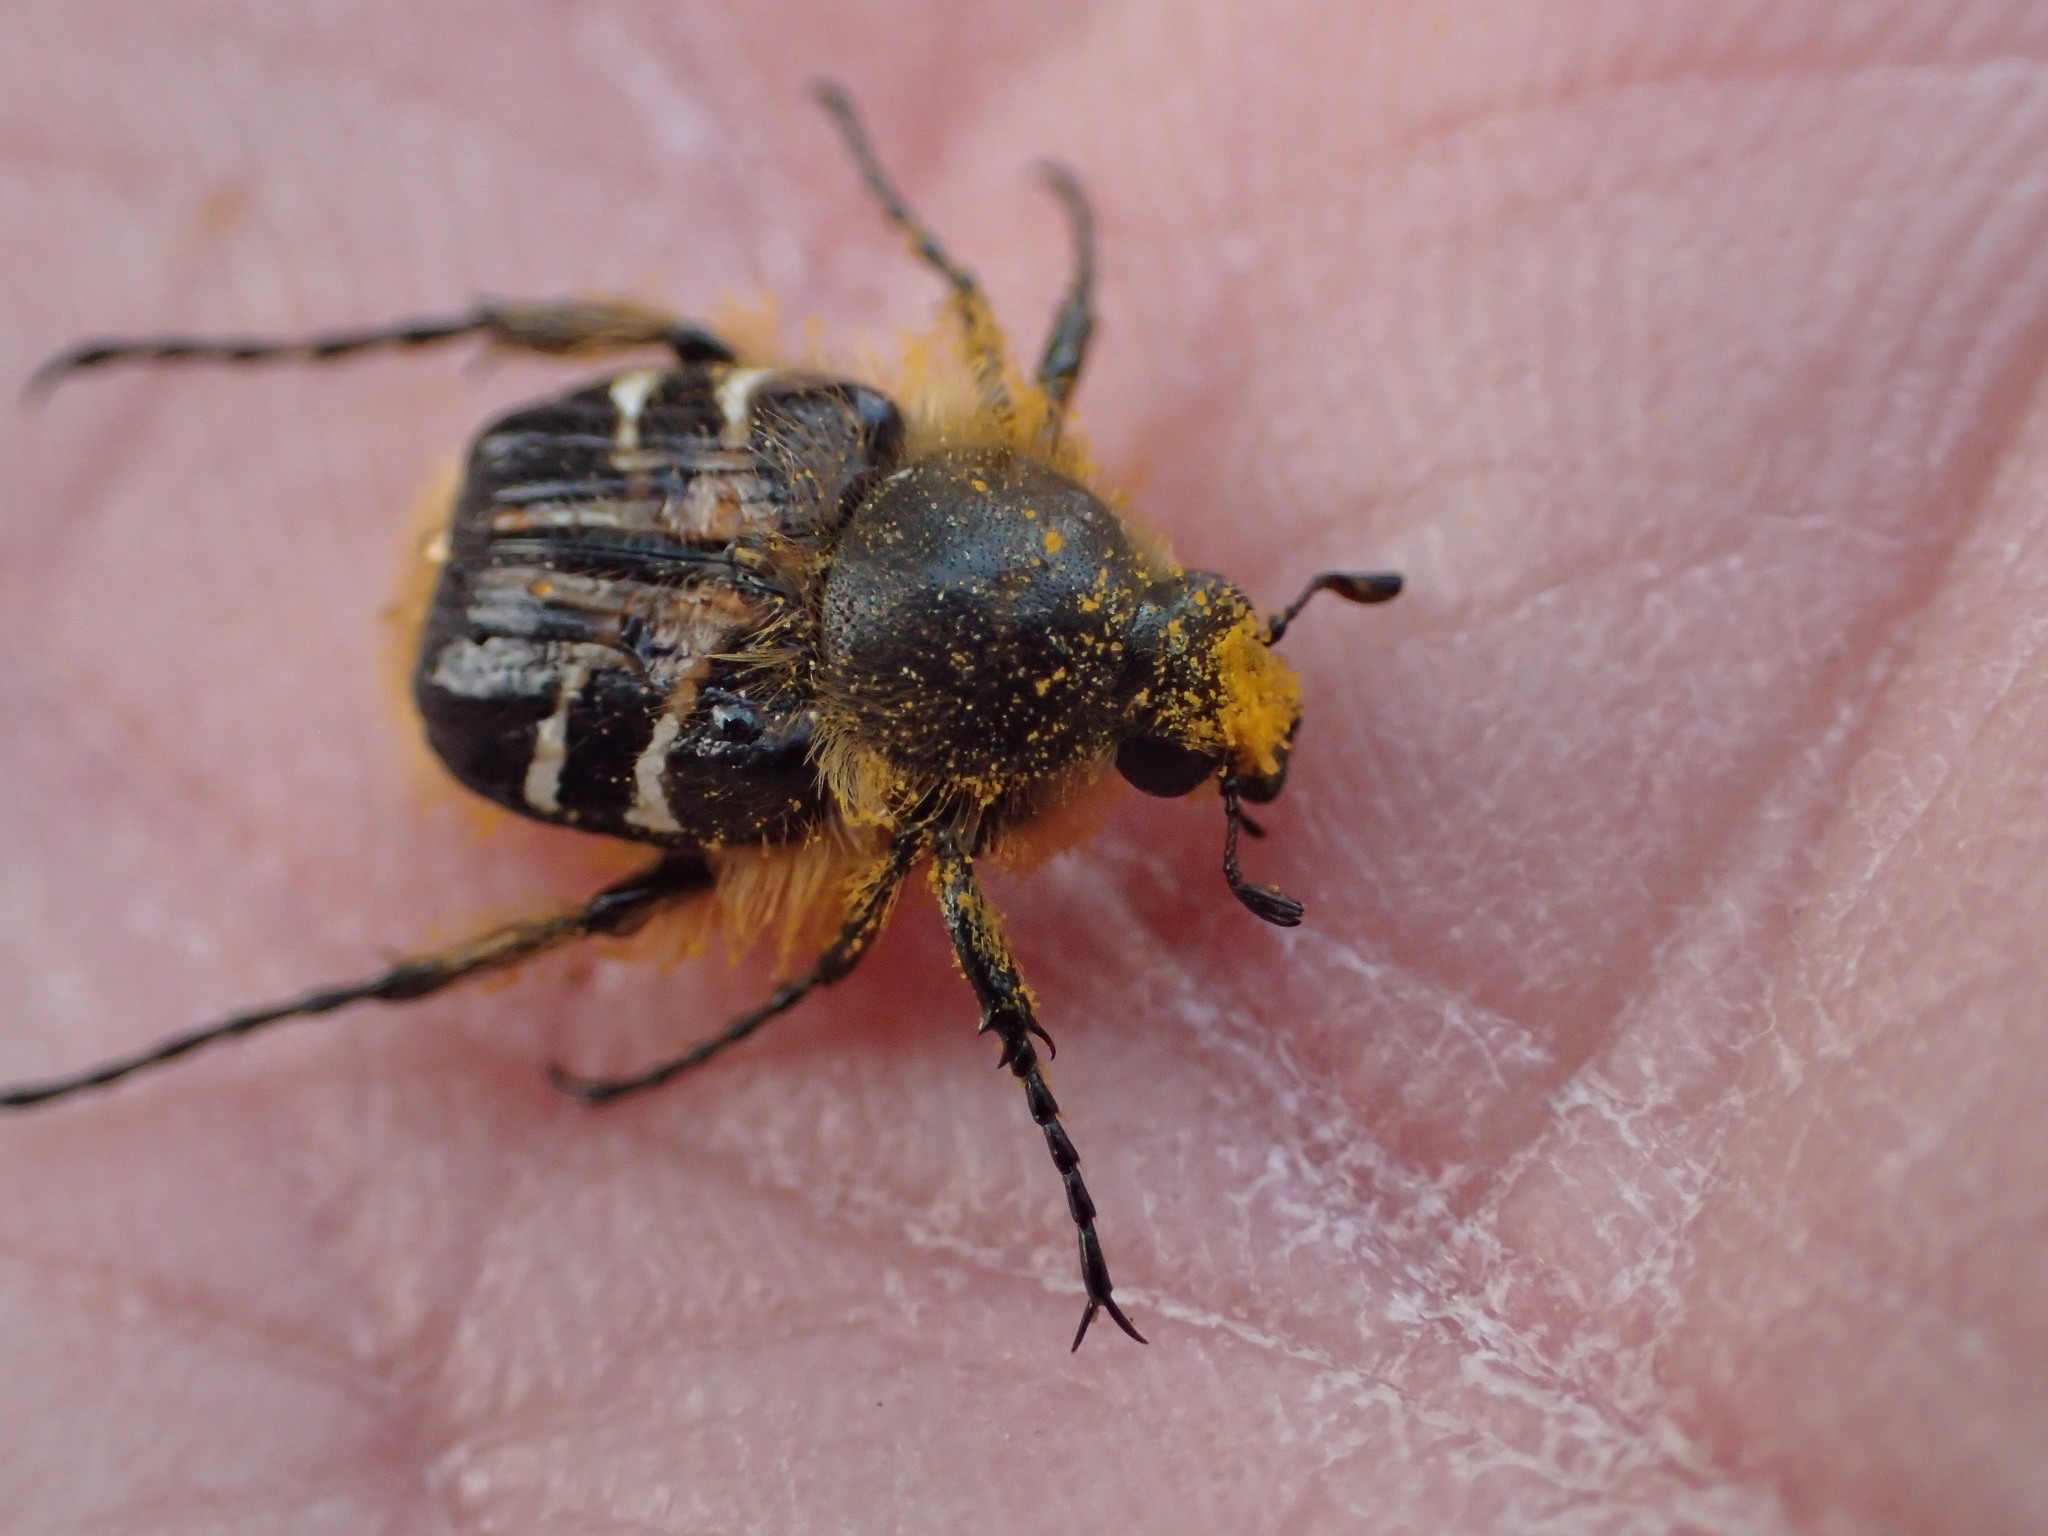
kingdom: Animalia
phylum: Arthropoda
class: Insecta
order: Coleoptera
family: Scarabaeidae
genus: Trichiotinus
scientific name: Trichiotinus assimilis
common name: Bee-mimic beetle
